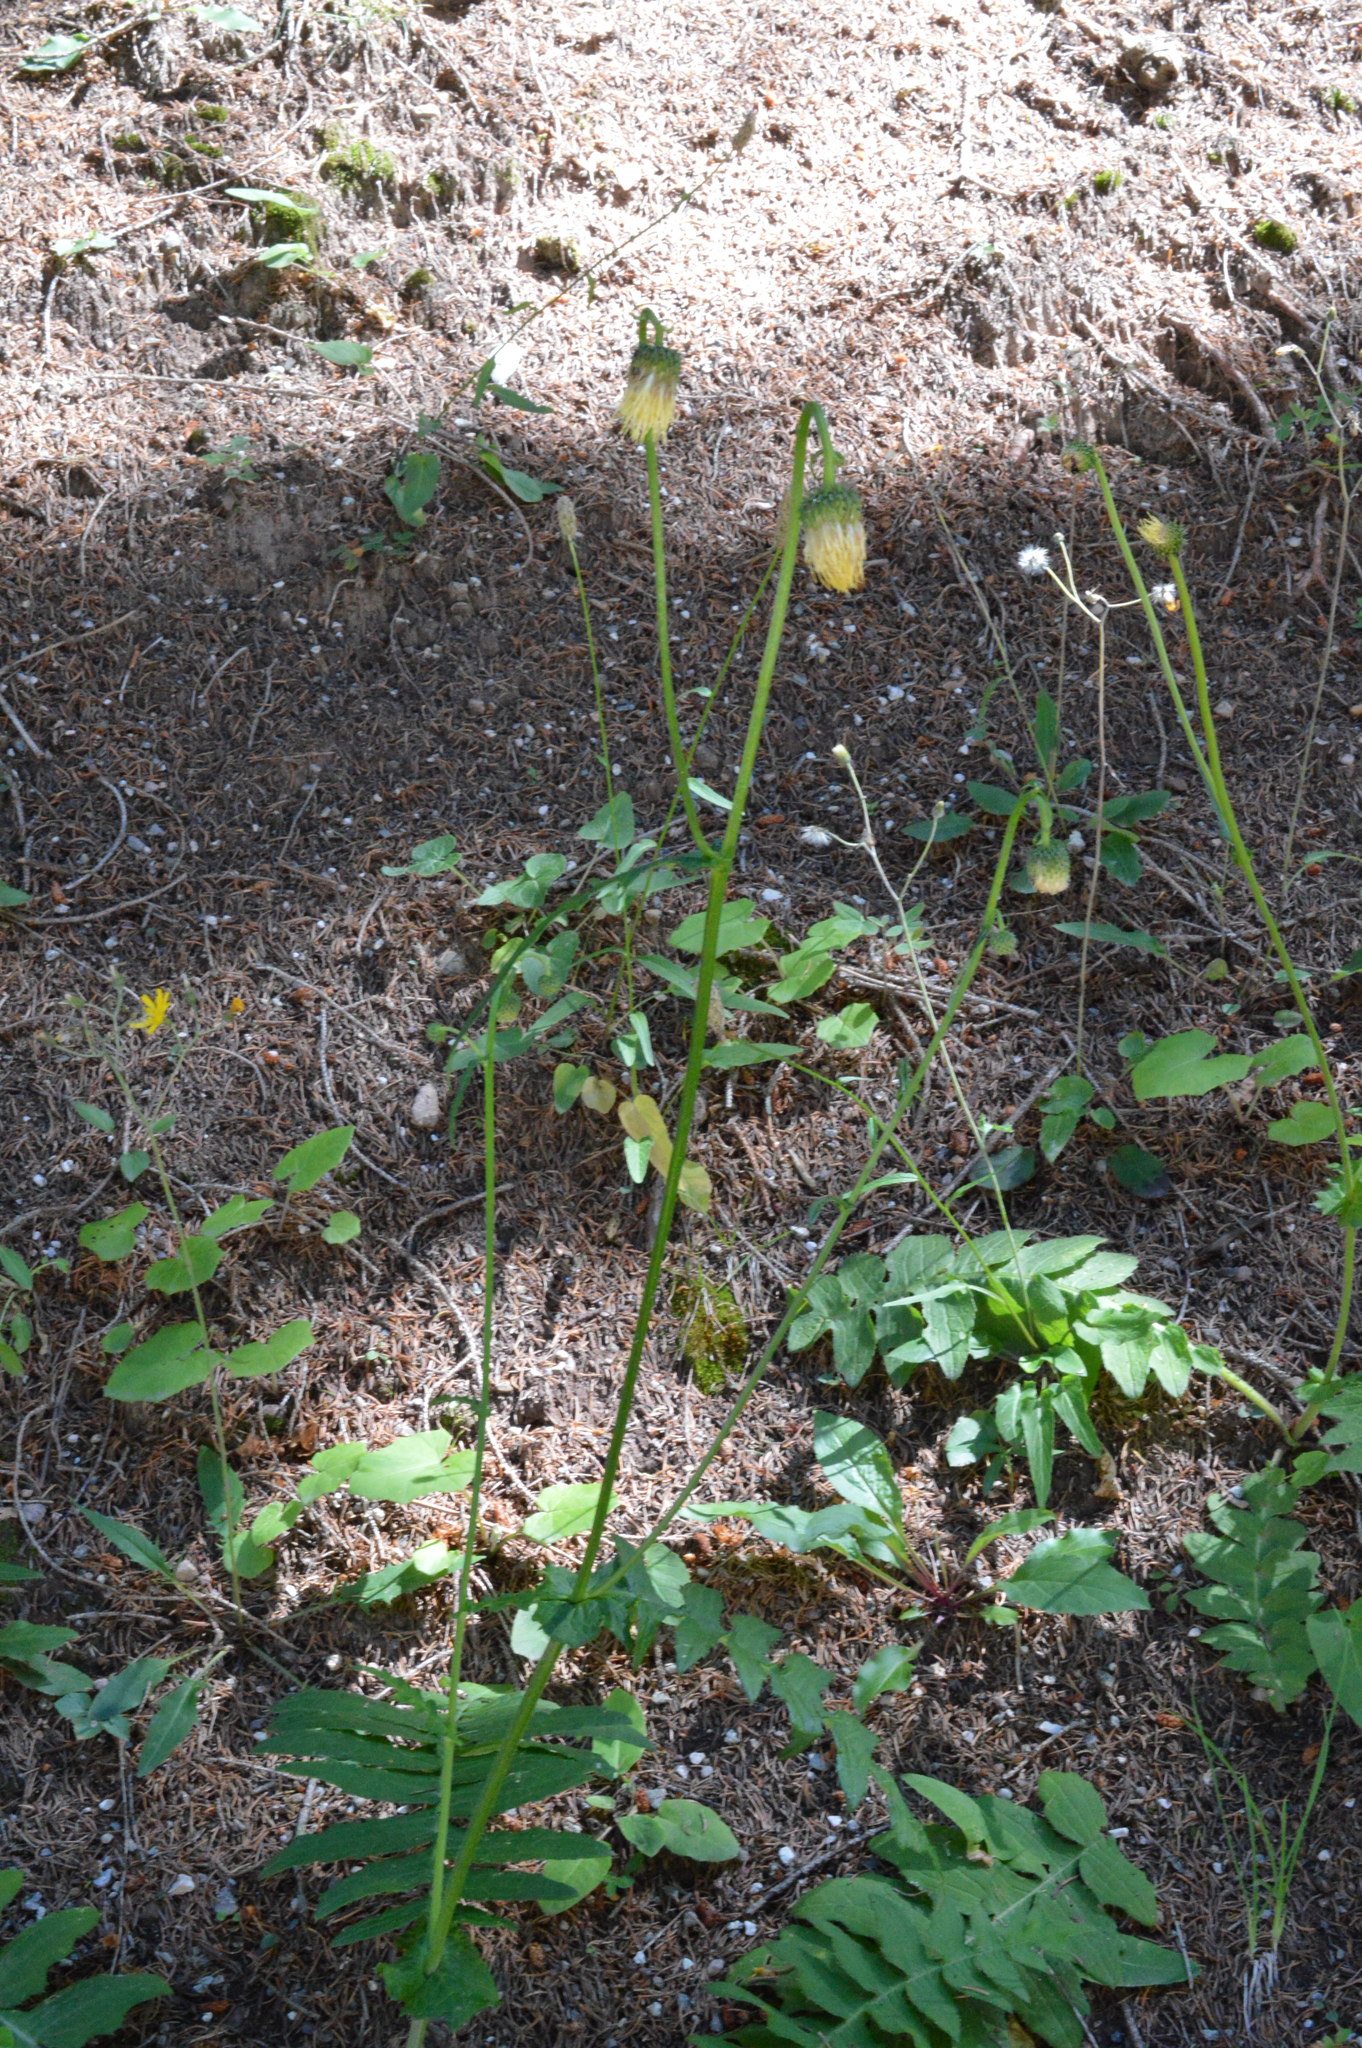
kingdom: Plantae
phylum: Tracheophyta
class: Magnoliopsida
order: Asterales
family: Asteraceae
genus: Cirsium
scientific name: Cirsium erisithales
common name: Yellow thistle
